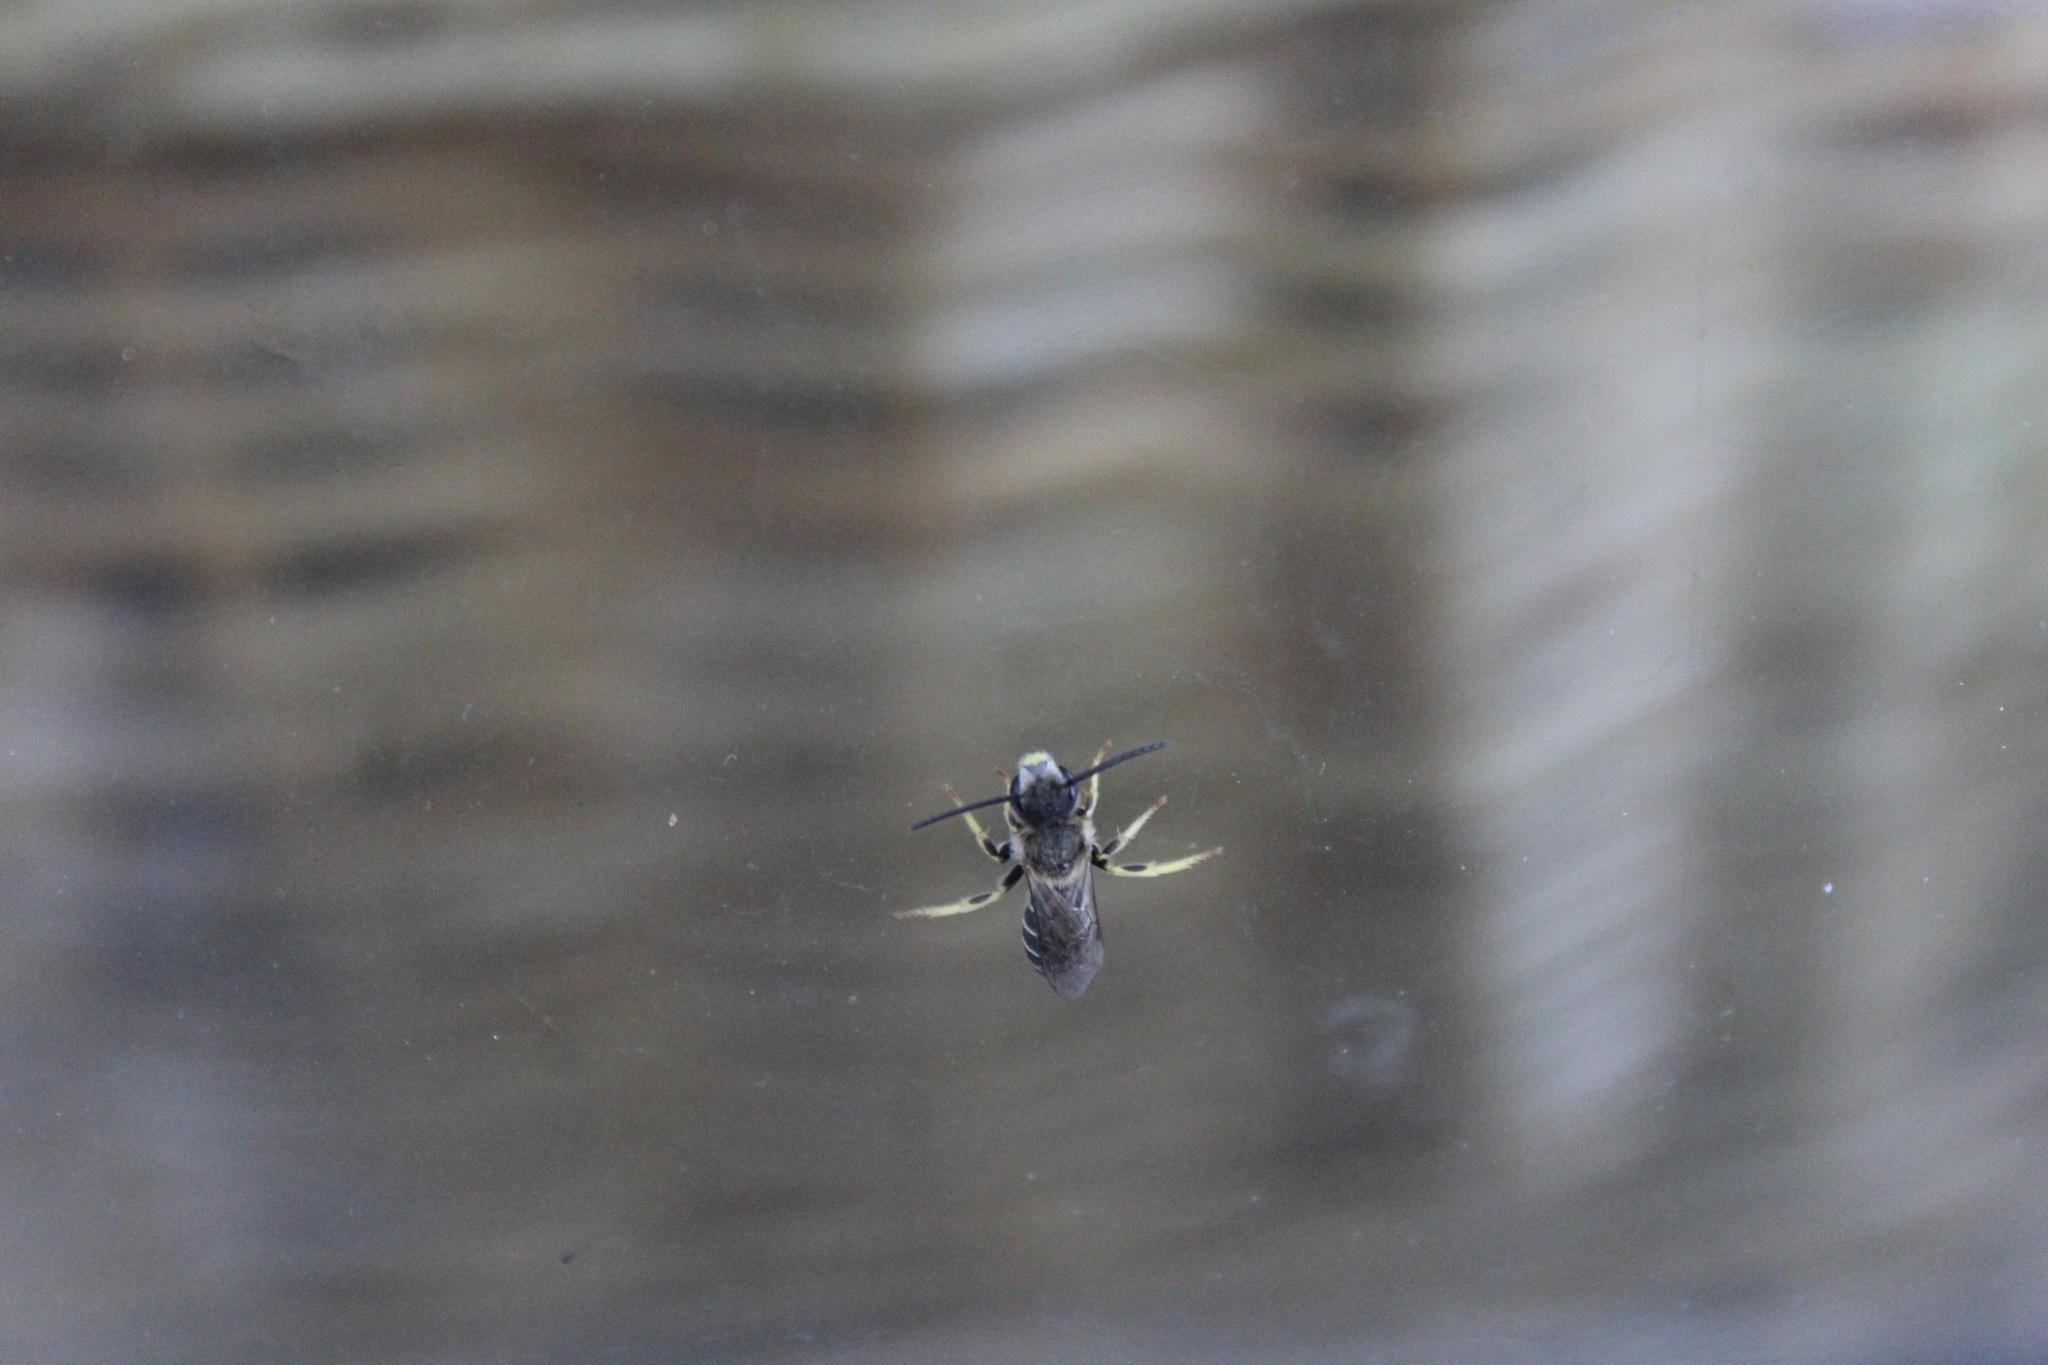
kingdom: Animalia
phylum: Arthropoda
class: Insecta
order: Hymenoptera
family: Halictidae
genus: Halictus
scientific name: Halictus rubicundus
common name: Orange-legged furrow bee
